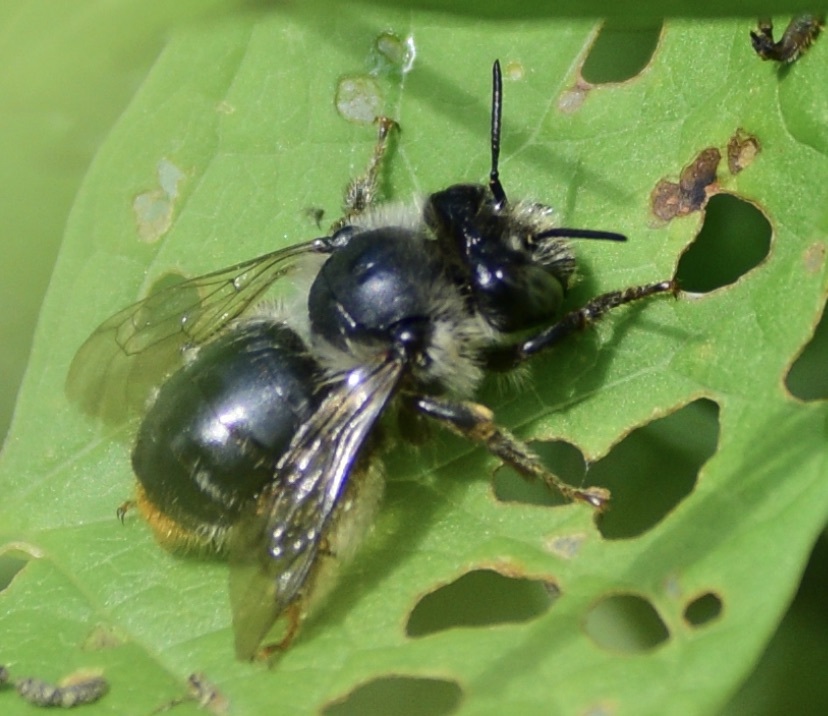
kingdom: Animalia
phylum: Arthropoda
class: Insecta
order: Hymenoptera
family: Apidae
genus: Anthophora
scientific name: Anthophora terminalis
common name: Orange-tipped wood-digger bee
